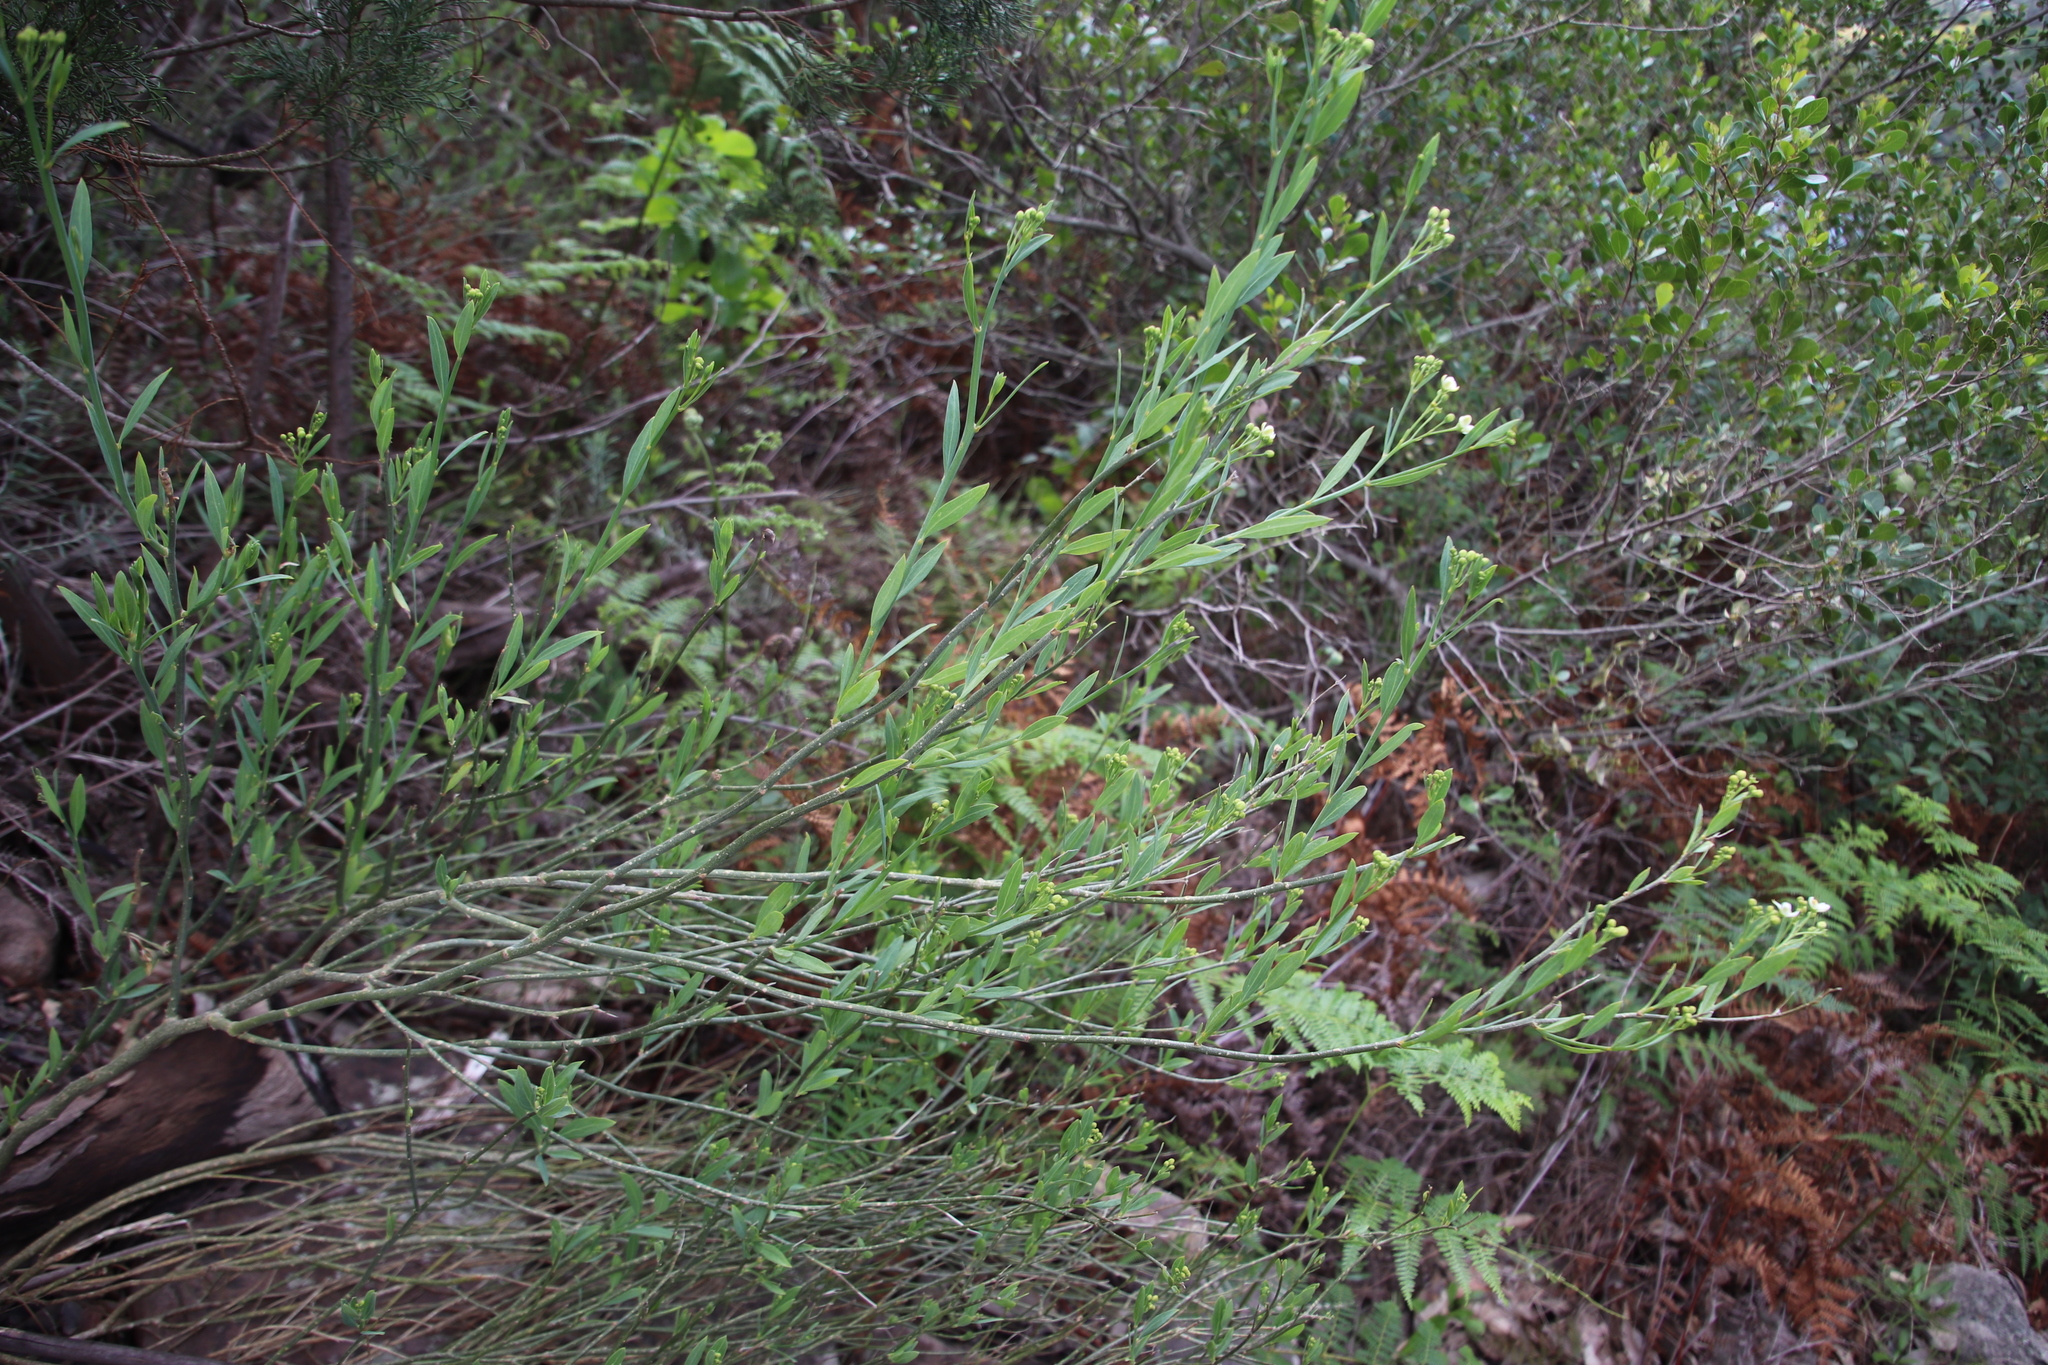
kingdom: Plantae
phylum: Tracheophyta
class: Magnoliopsida
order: Solanales
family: Montiniaceae
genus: Montinia
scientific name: Montinia caryophyllacea
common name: Wild clove-bush
